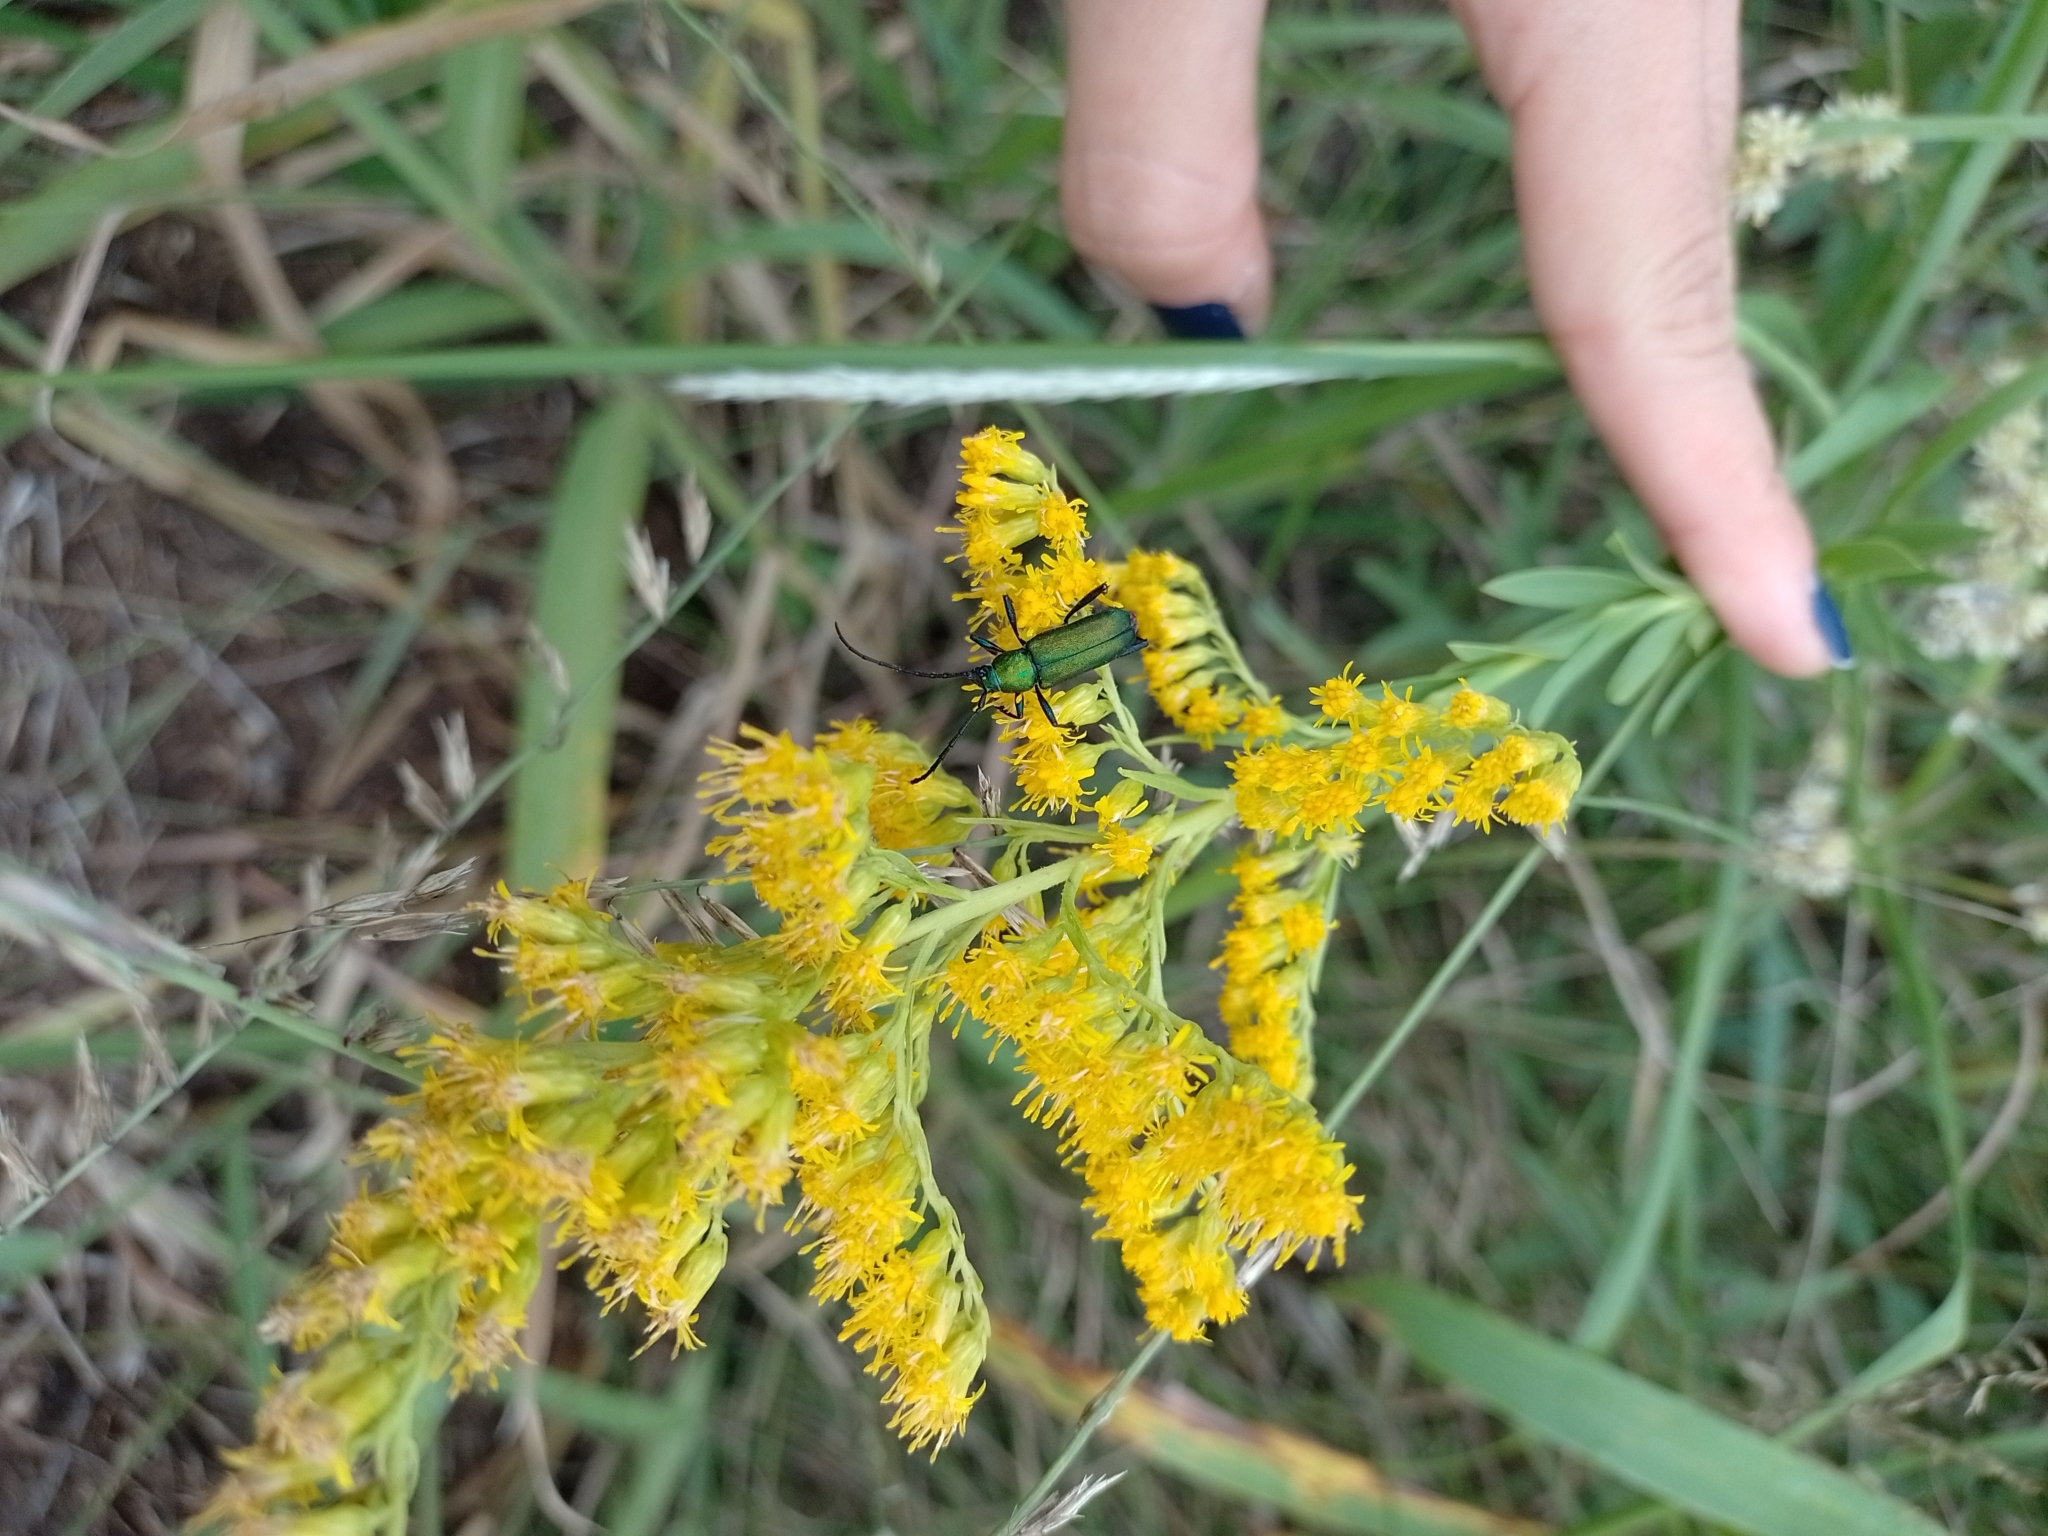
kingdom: Plantae
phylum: Tracheophyta
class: Magnoliopsida
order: Asterales
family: Asteraceae
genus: Solidago
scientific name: Solidago chilensis
